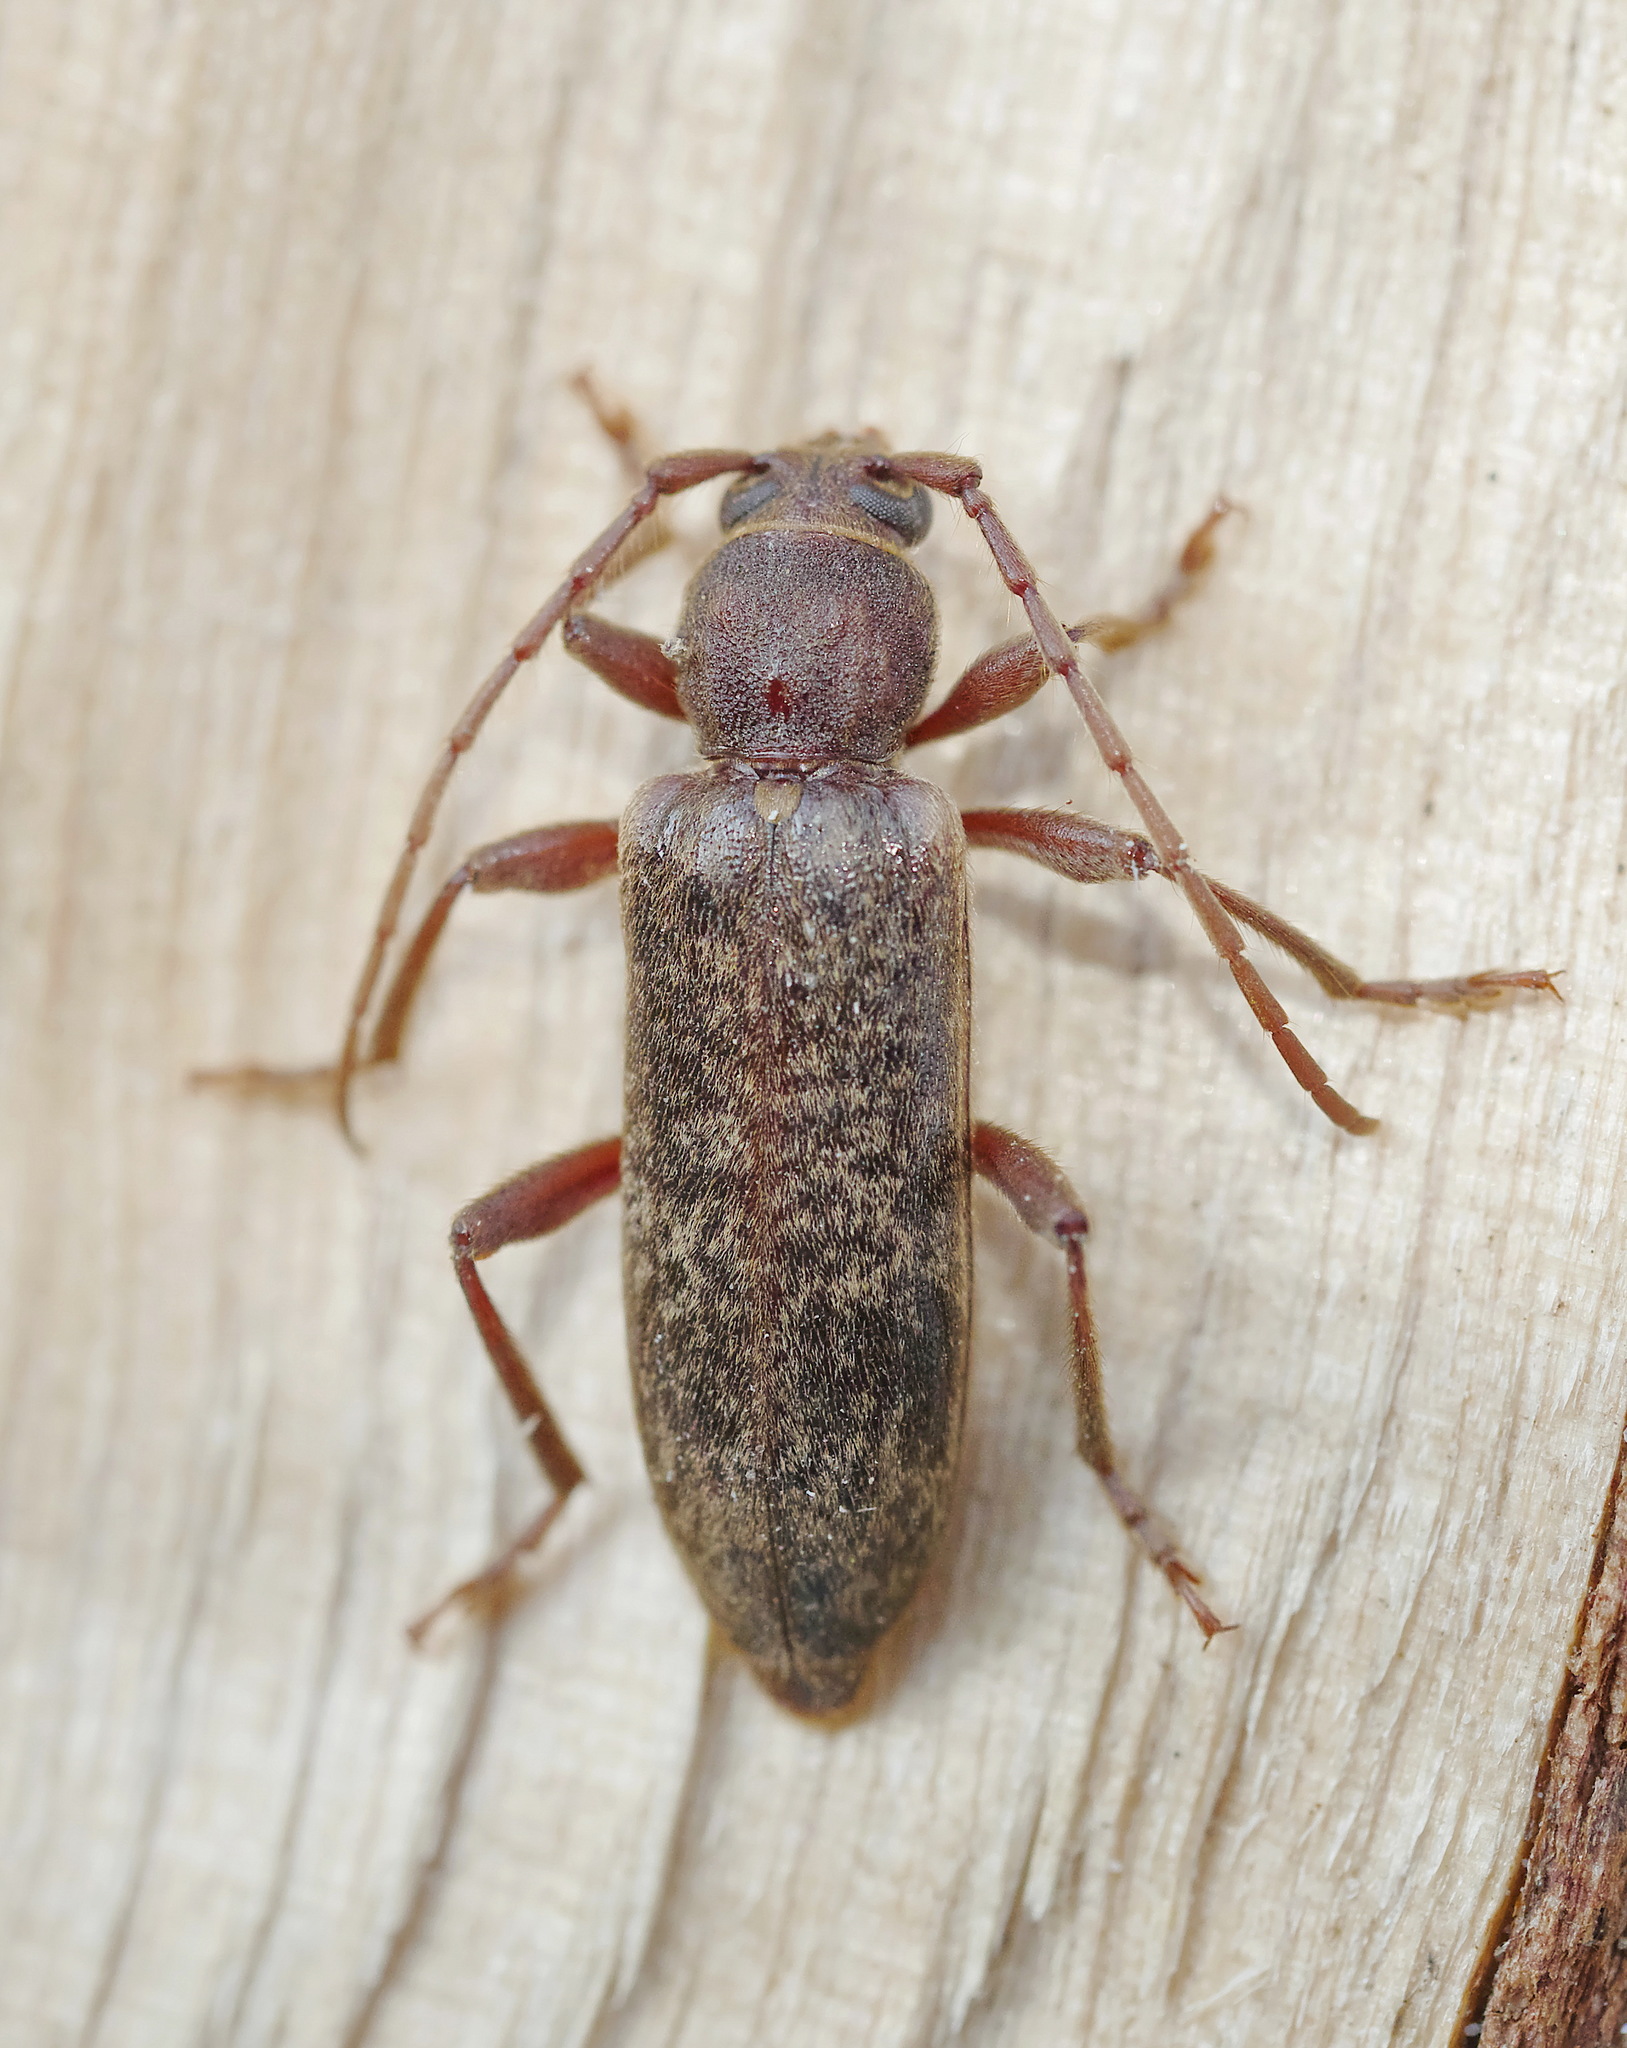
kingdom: Animalia
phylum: Arthropoda
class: Insecta
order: Coleoptera
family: Cerambycidae
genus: Trichoferus
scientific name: Trichoferus campestris
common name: Velvet long horned beetle
